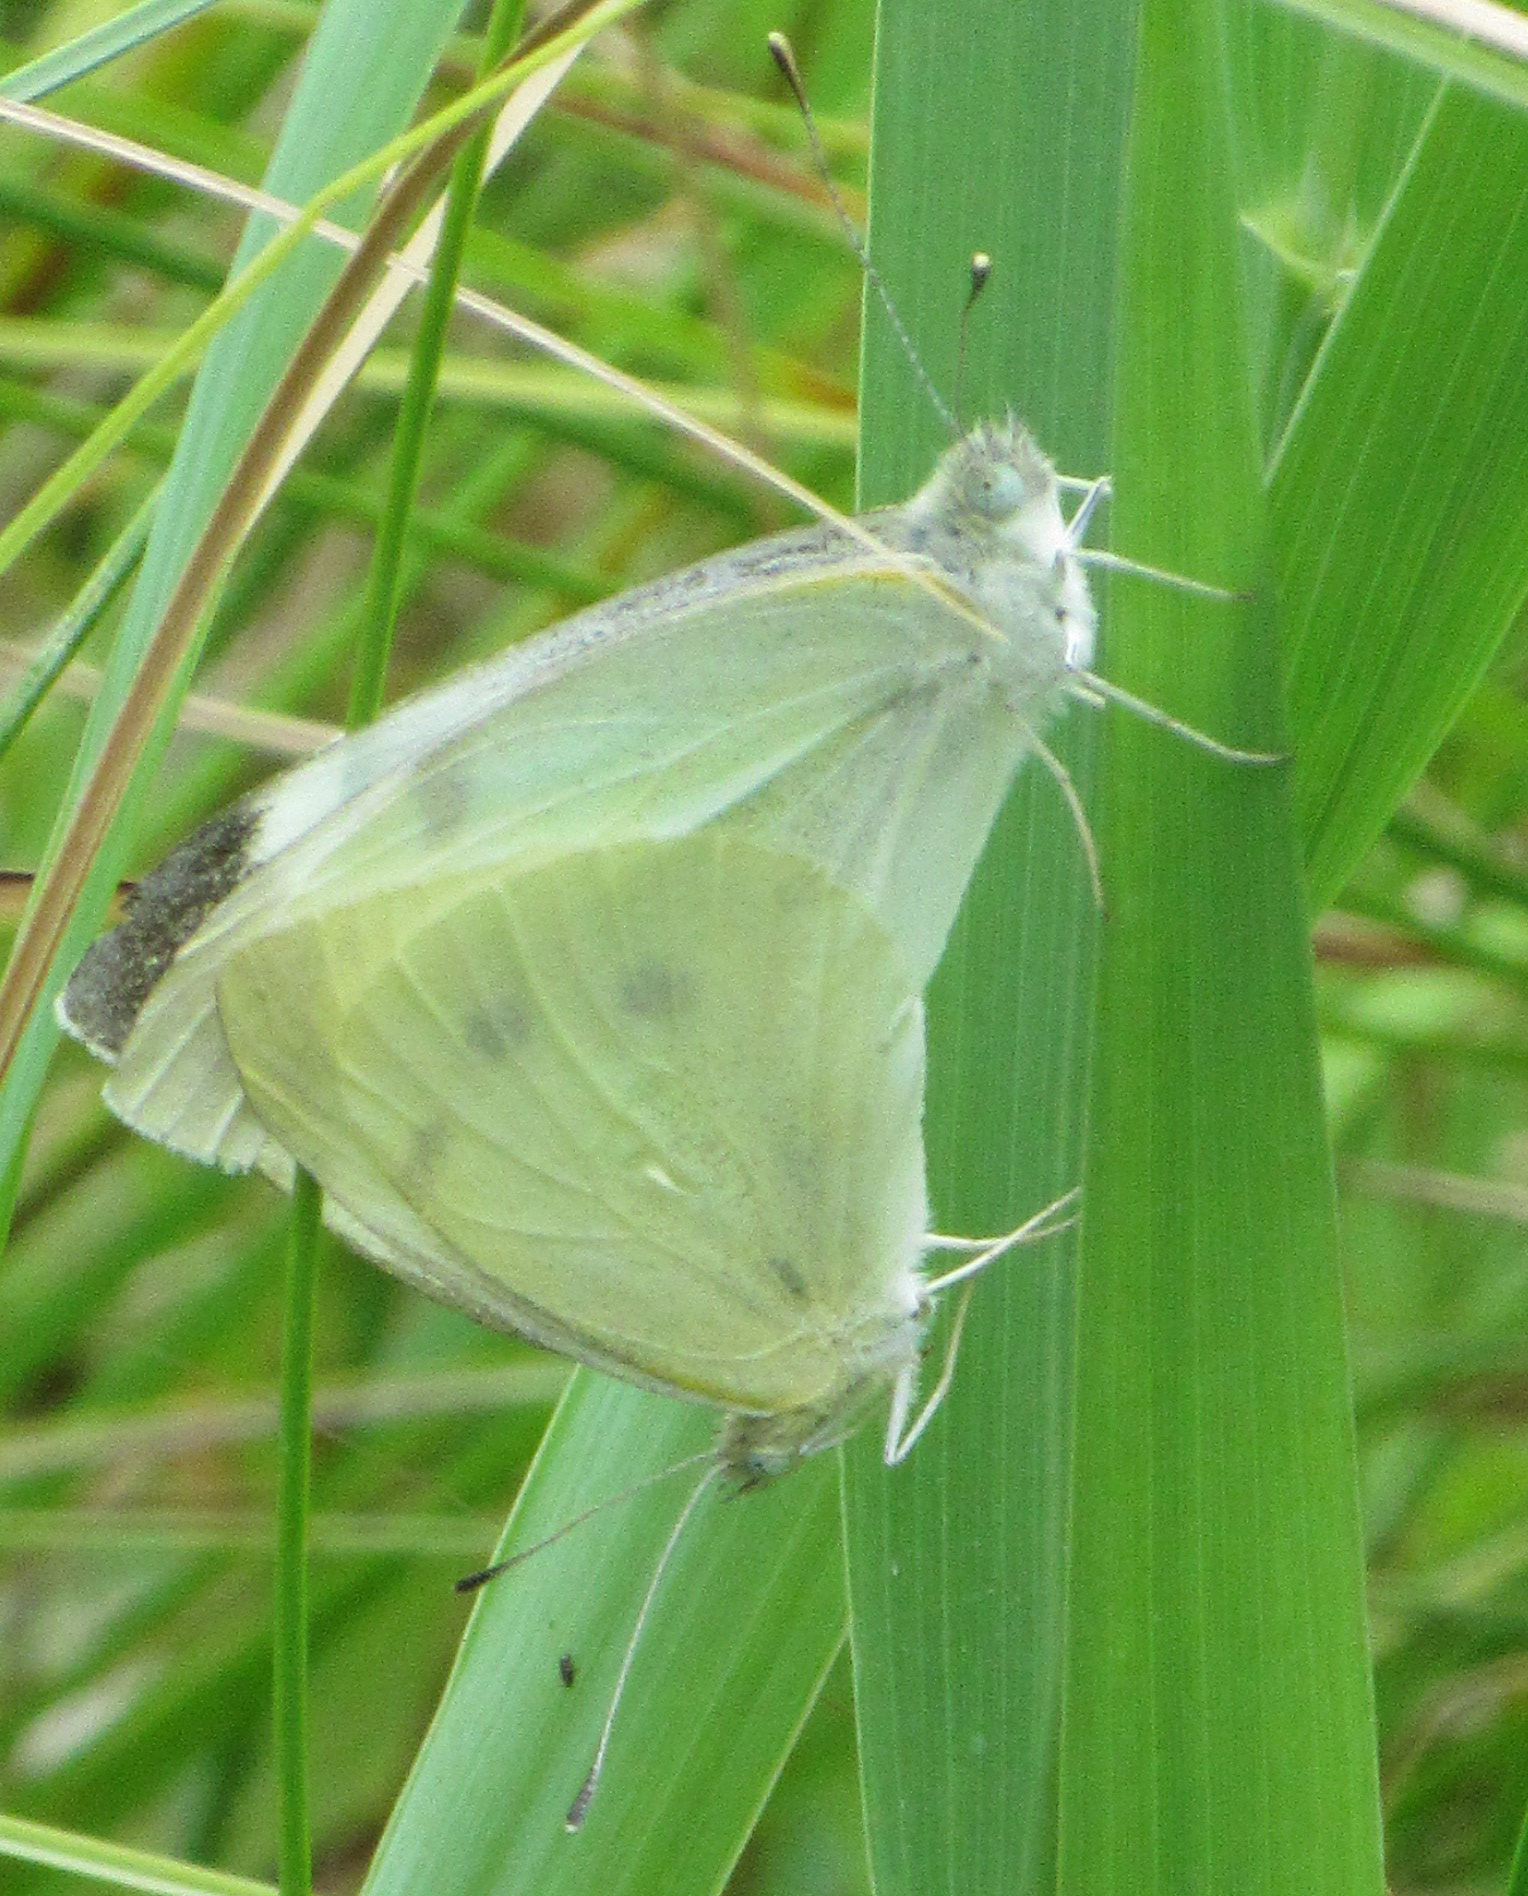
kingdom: Animalia
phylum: Arthropoda
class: Insecta
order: Lepidoptera
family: Pieridae
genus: Pieris
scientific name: Pieris rapae
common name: Small white
